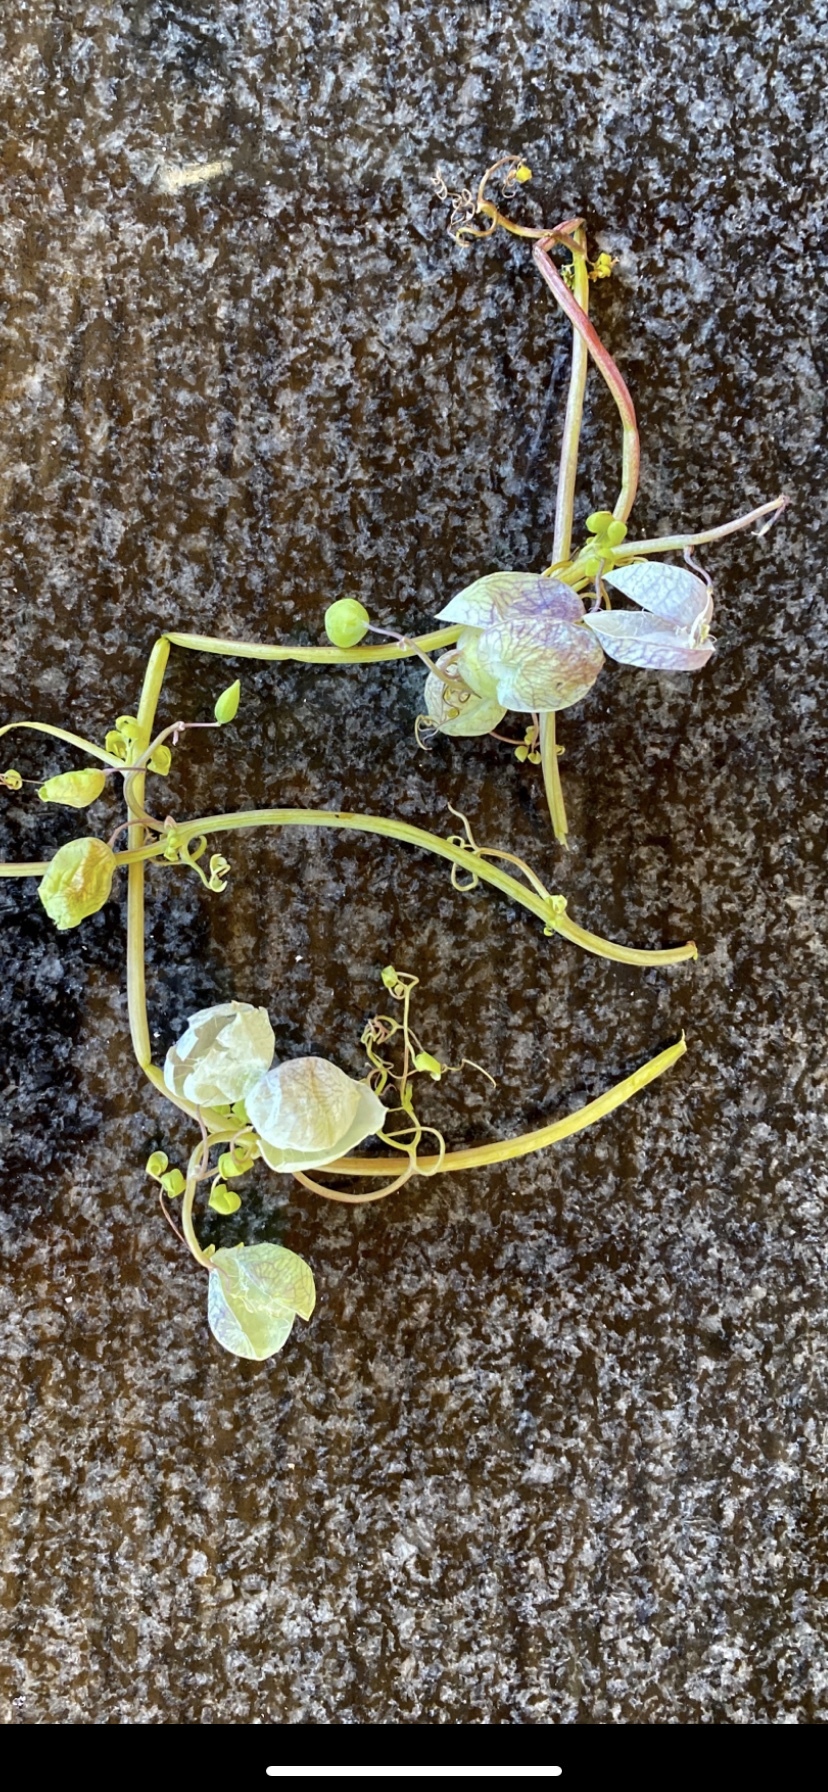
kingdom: Plantae
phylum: Tracheophyta
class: Magnoliopsida
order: Ranunculales
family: Papaveraceae
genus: Cysticapnos
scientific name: Cysticapnos vesicaria
